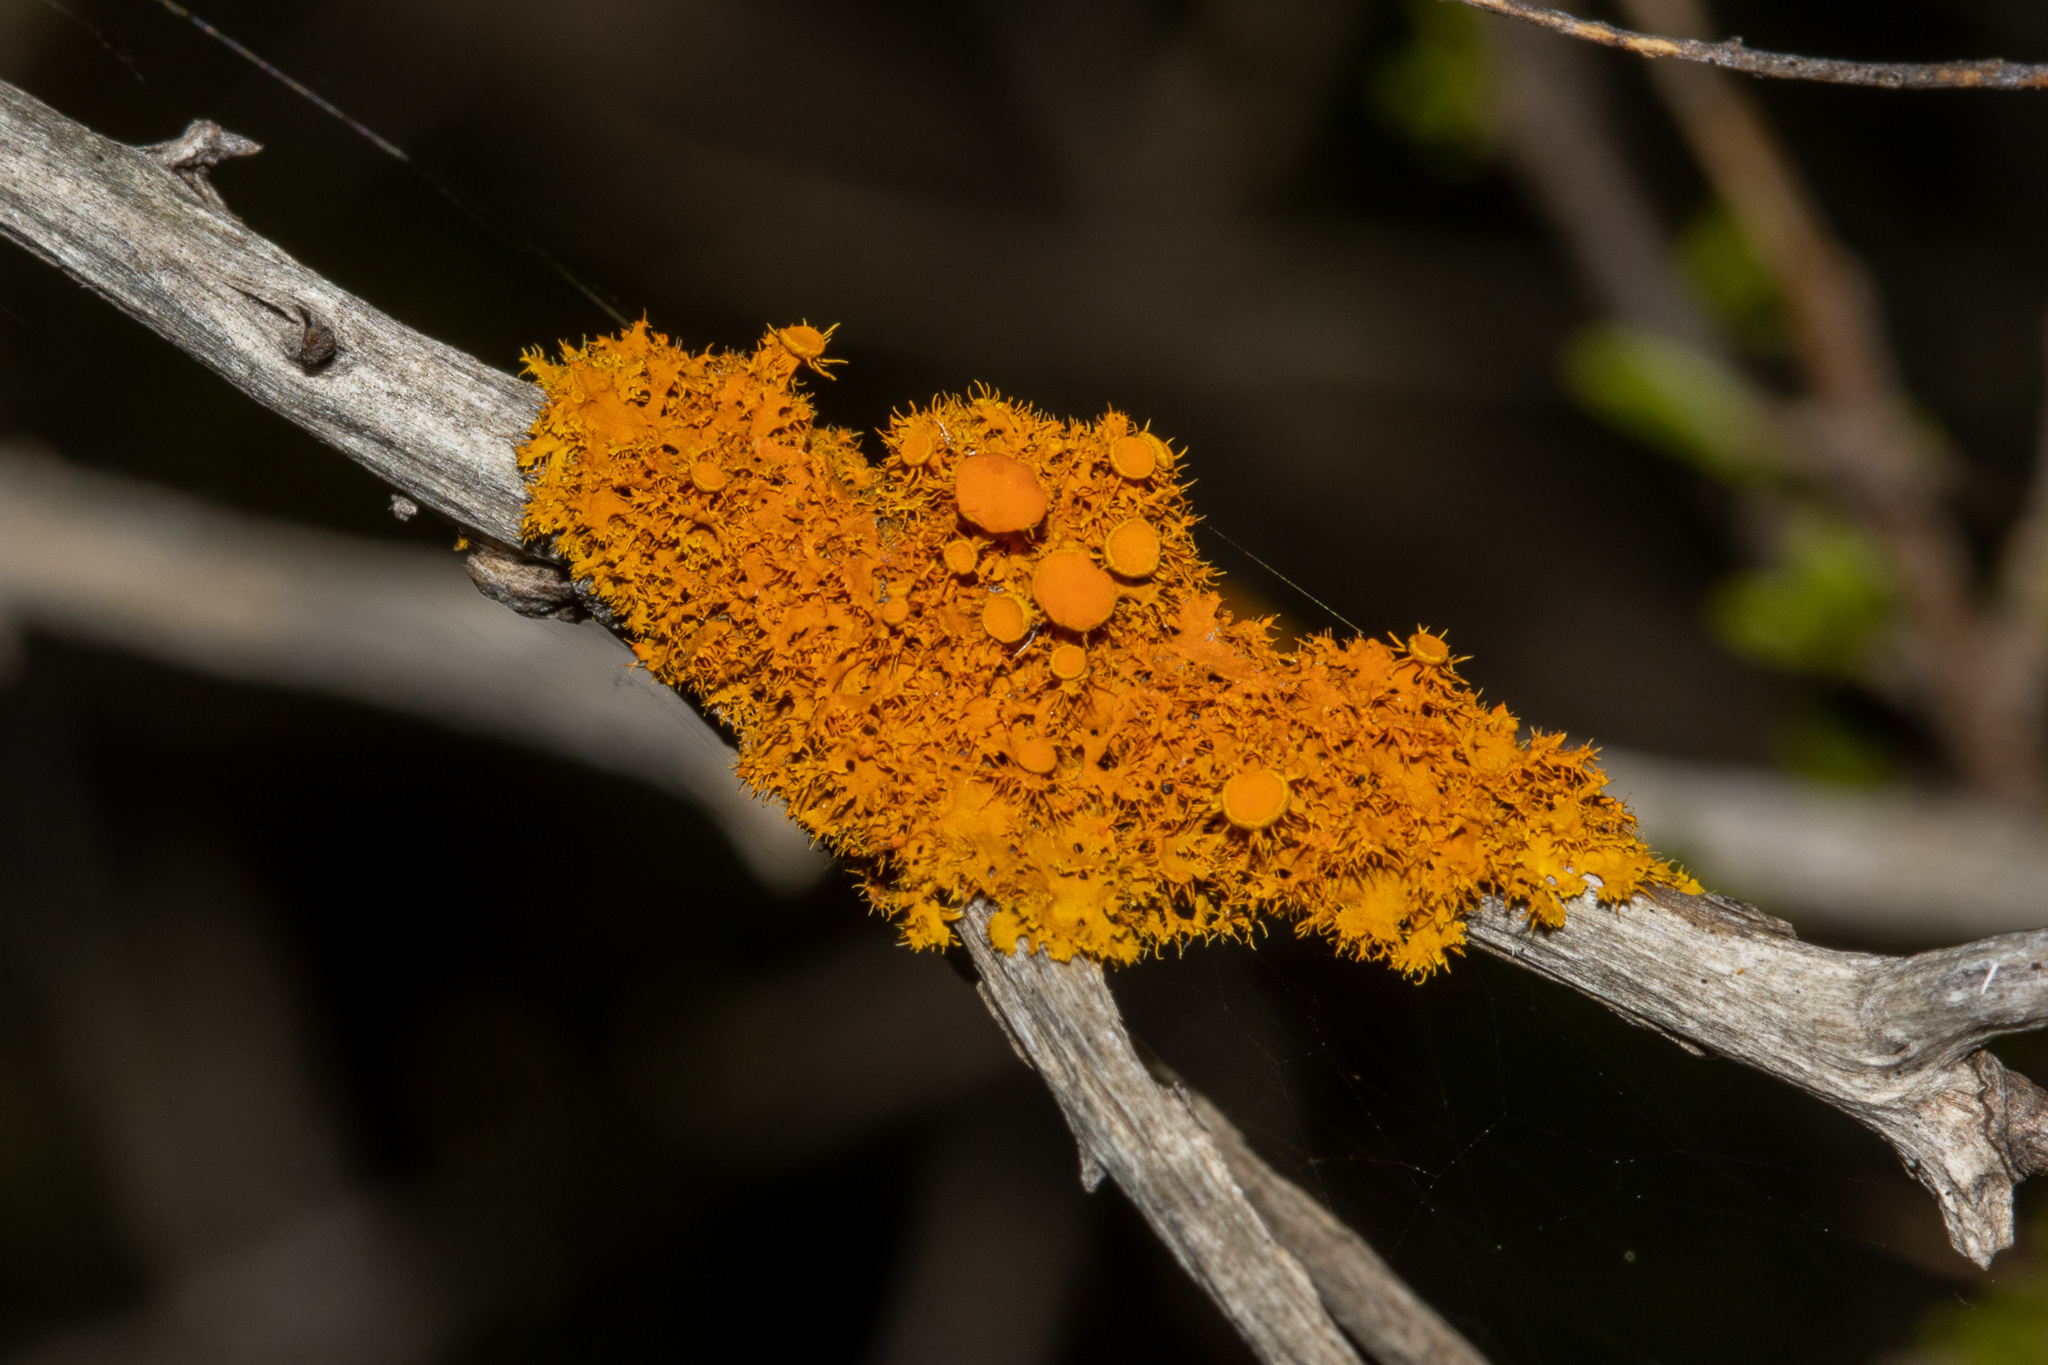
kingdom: Fungi
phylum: Ascomycota
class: Lecanoromycetes
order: Teloschistales
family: Teloschistaceae
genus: Niorma
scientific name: Niorma chrysophthalma
